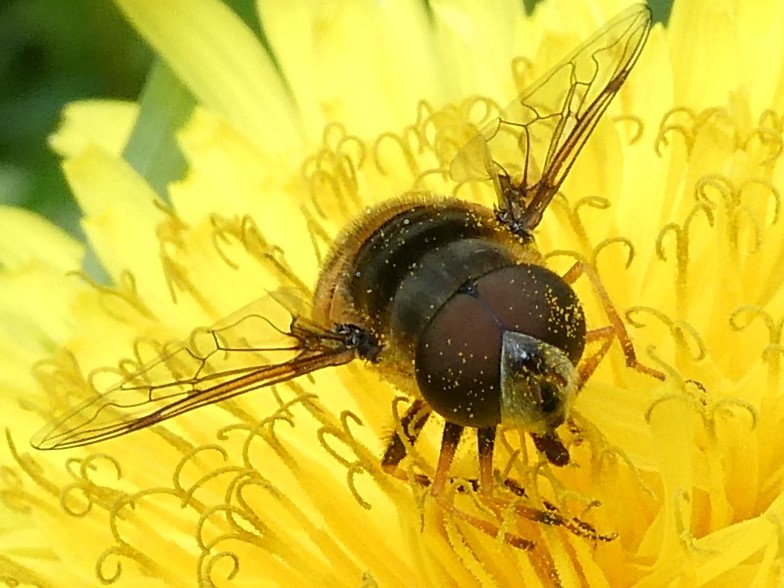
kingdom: Animalia
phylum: Arthropoda
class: Insecta
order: Diptera
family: Syrphidae
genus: Eristalis
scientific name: Eristalis transversa
